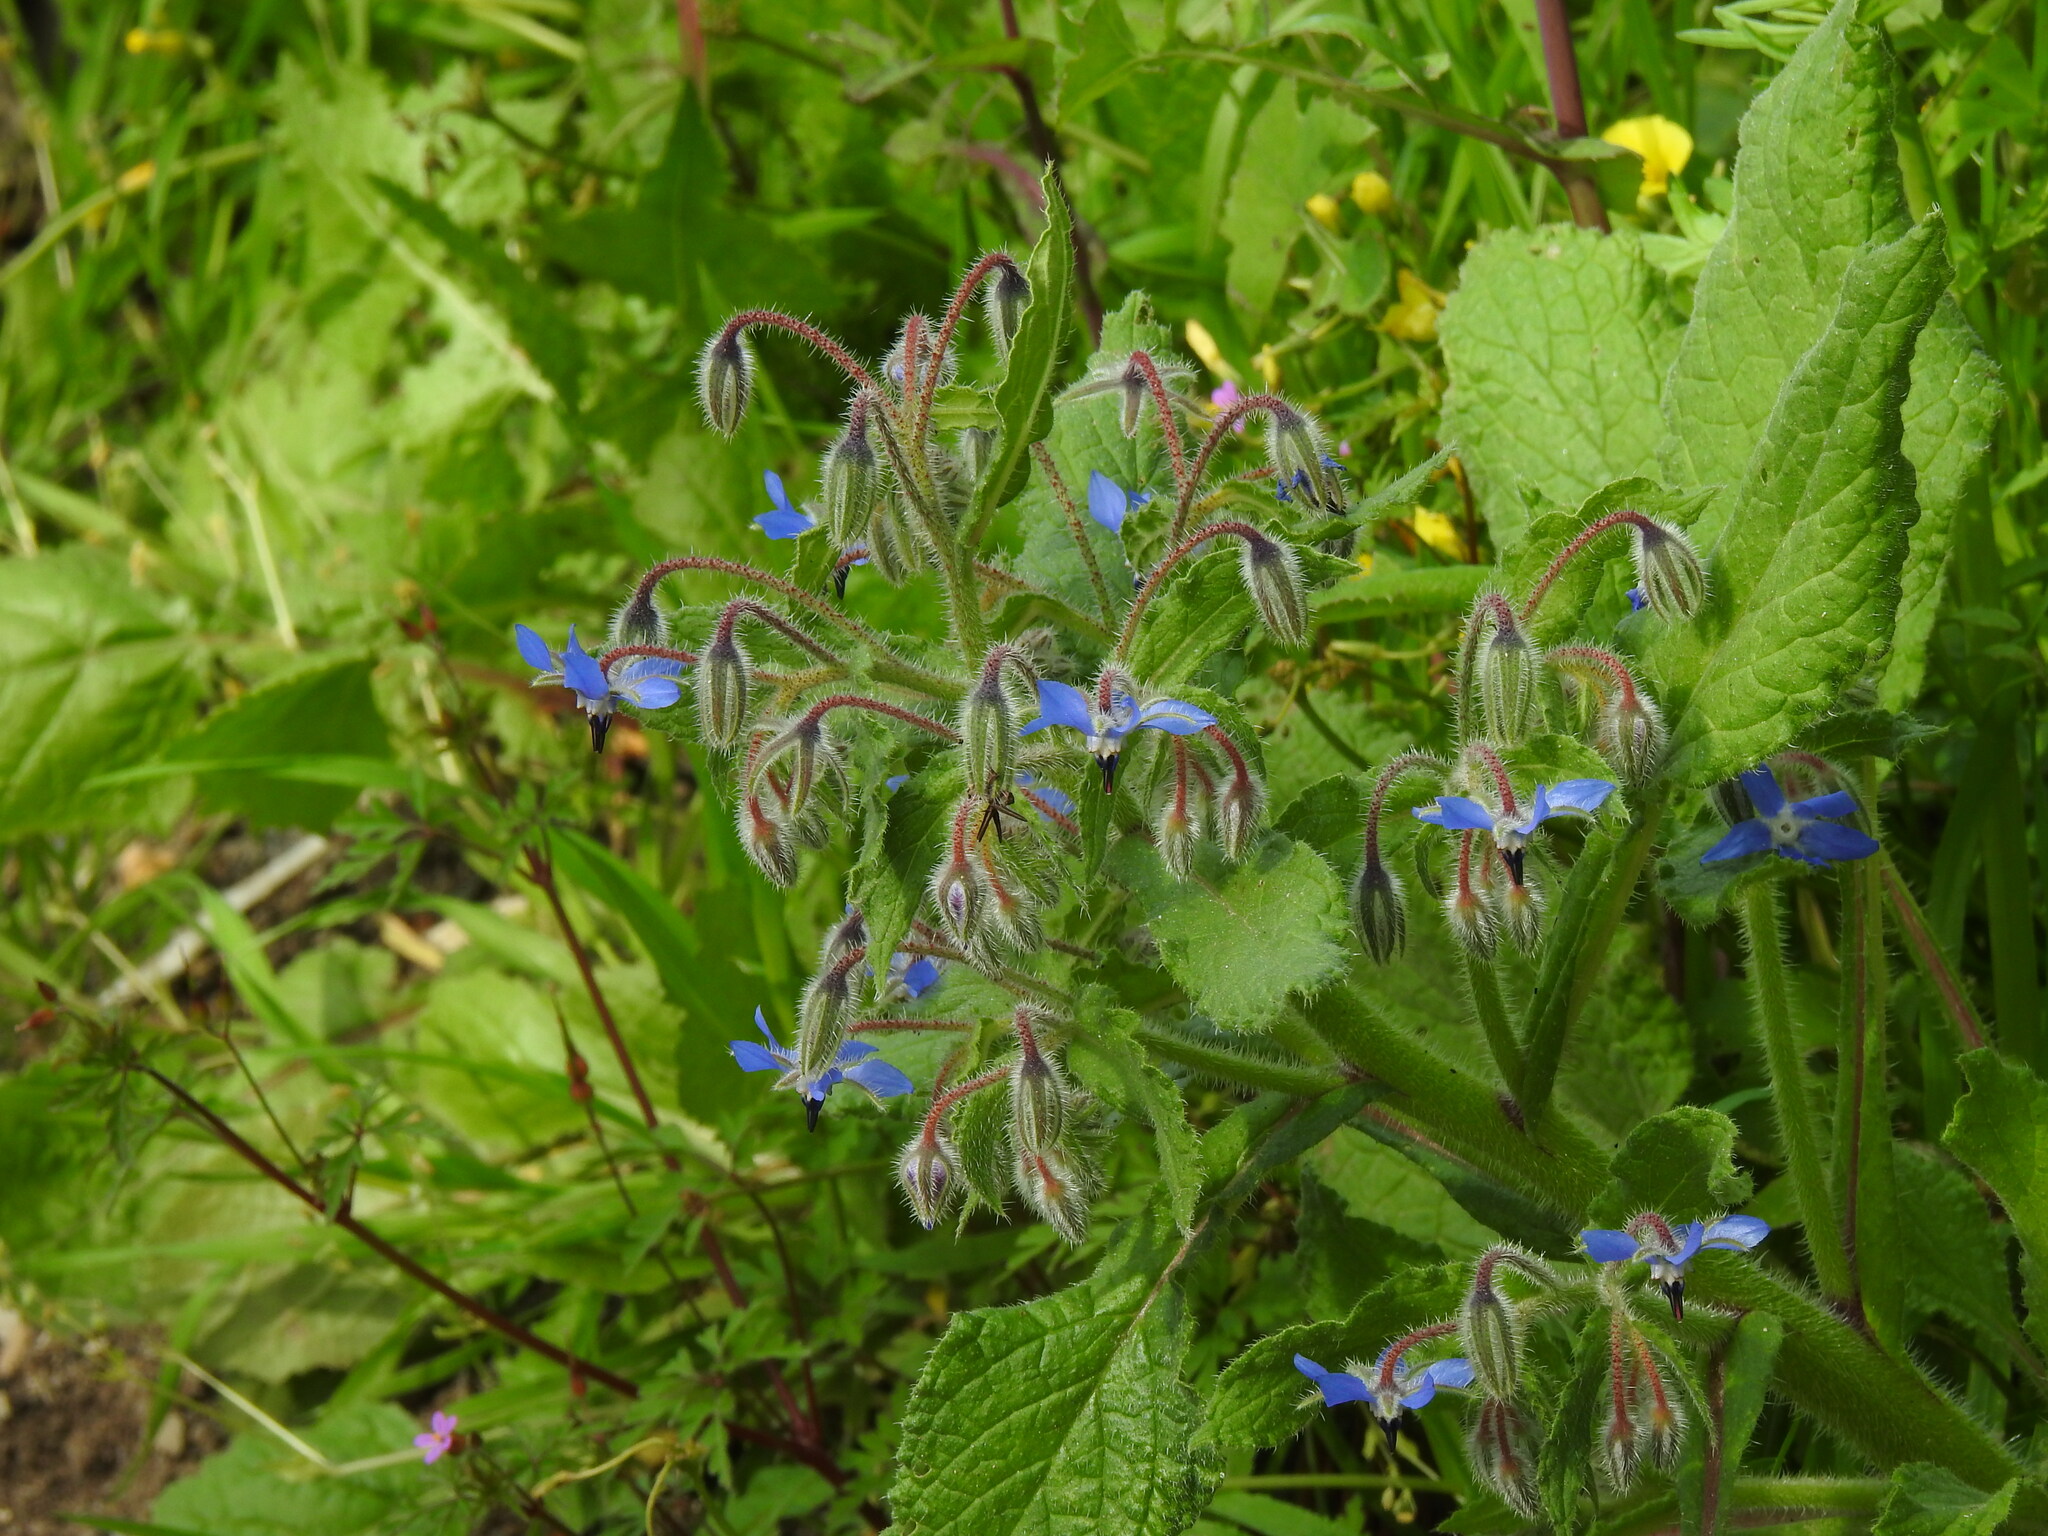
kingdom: Plantae
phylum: Tracheophyta
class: Magnoliopsida
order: Boraginales
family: Boraginaceae
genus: Borago
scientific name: Borago officinalis
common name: Borage
